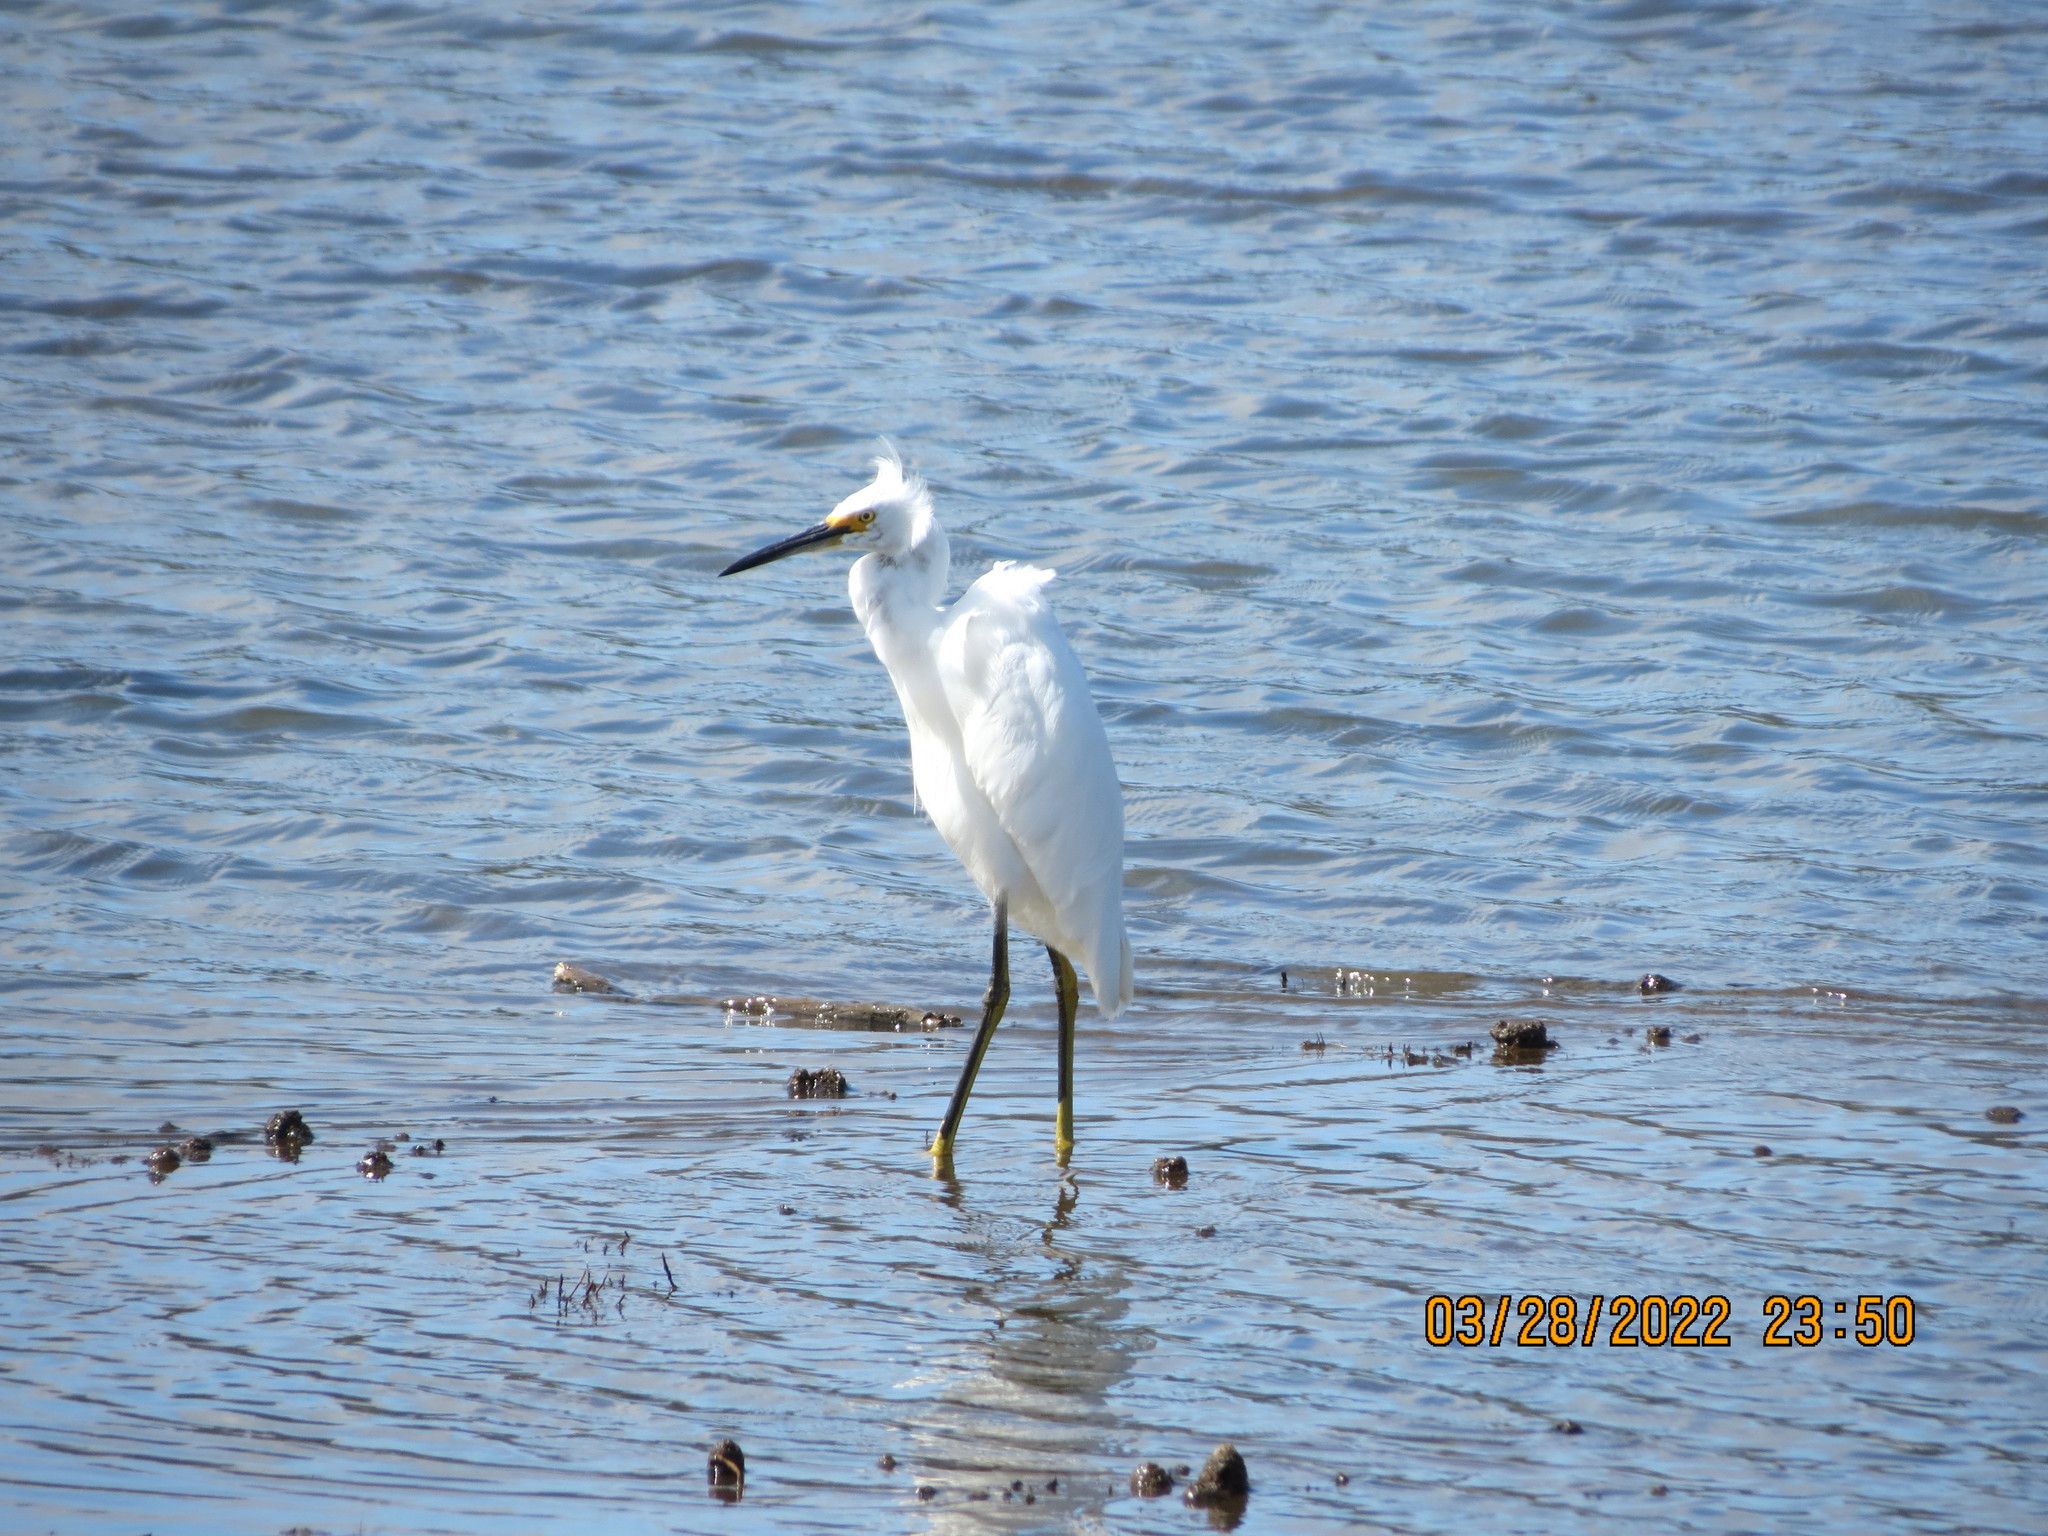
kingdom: Animalia
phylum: Chordata
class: Aves
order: Pelecaniformes
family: Ardeidae
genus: Egretta
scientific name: Egretta thula
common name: Snowy egret
